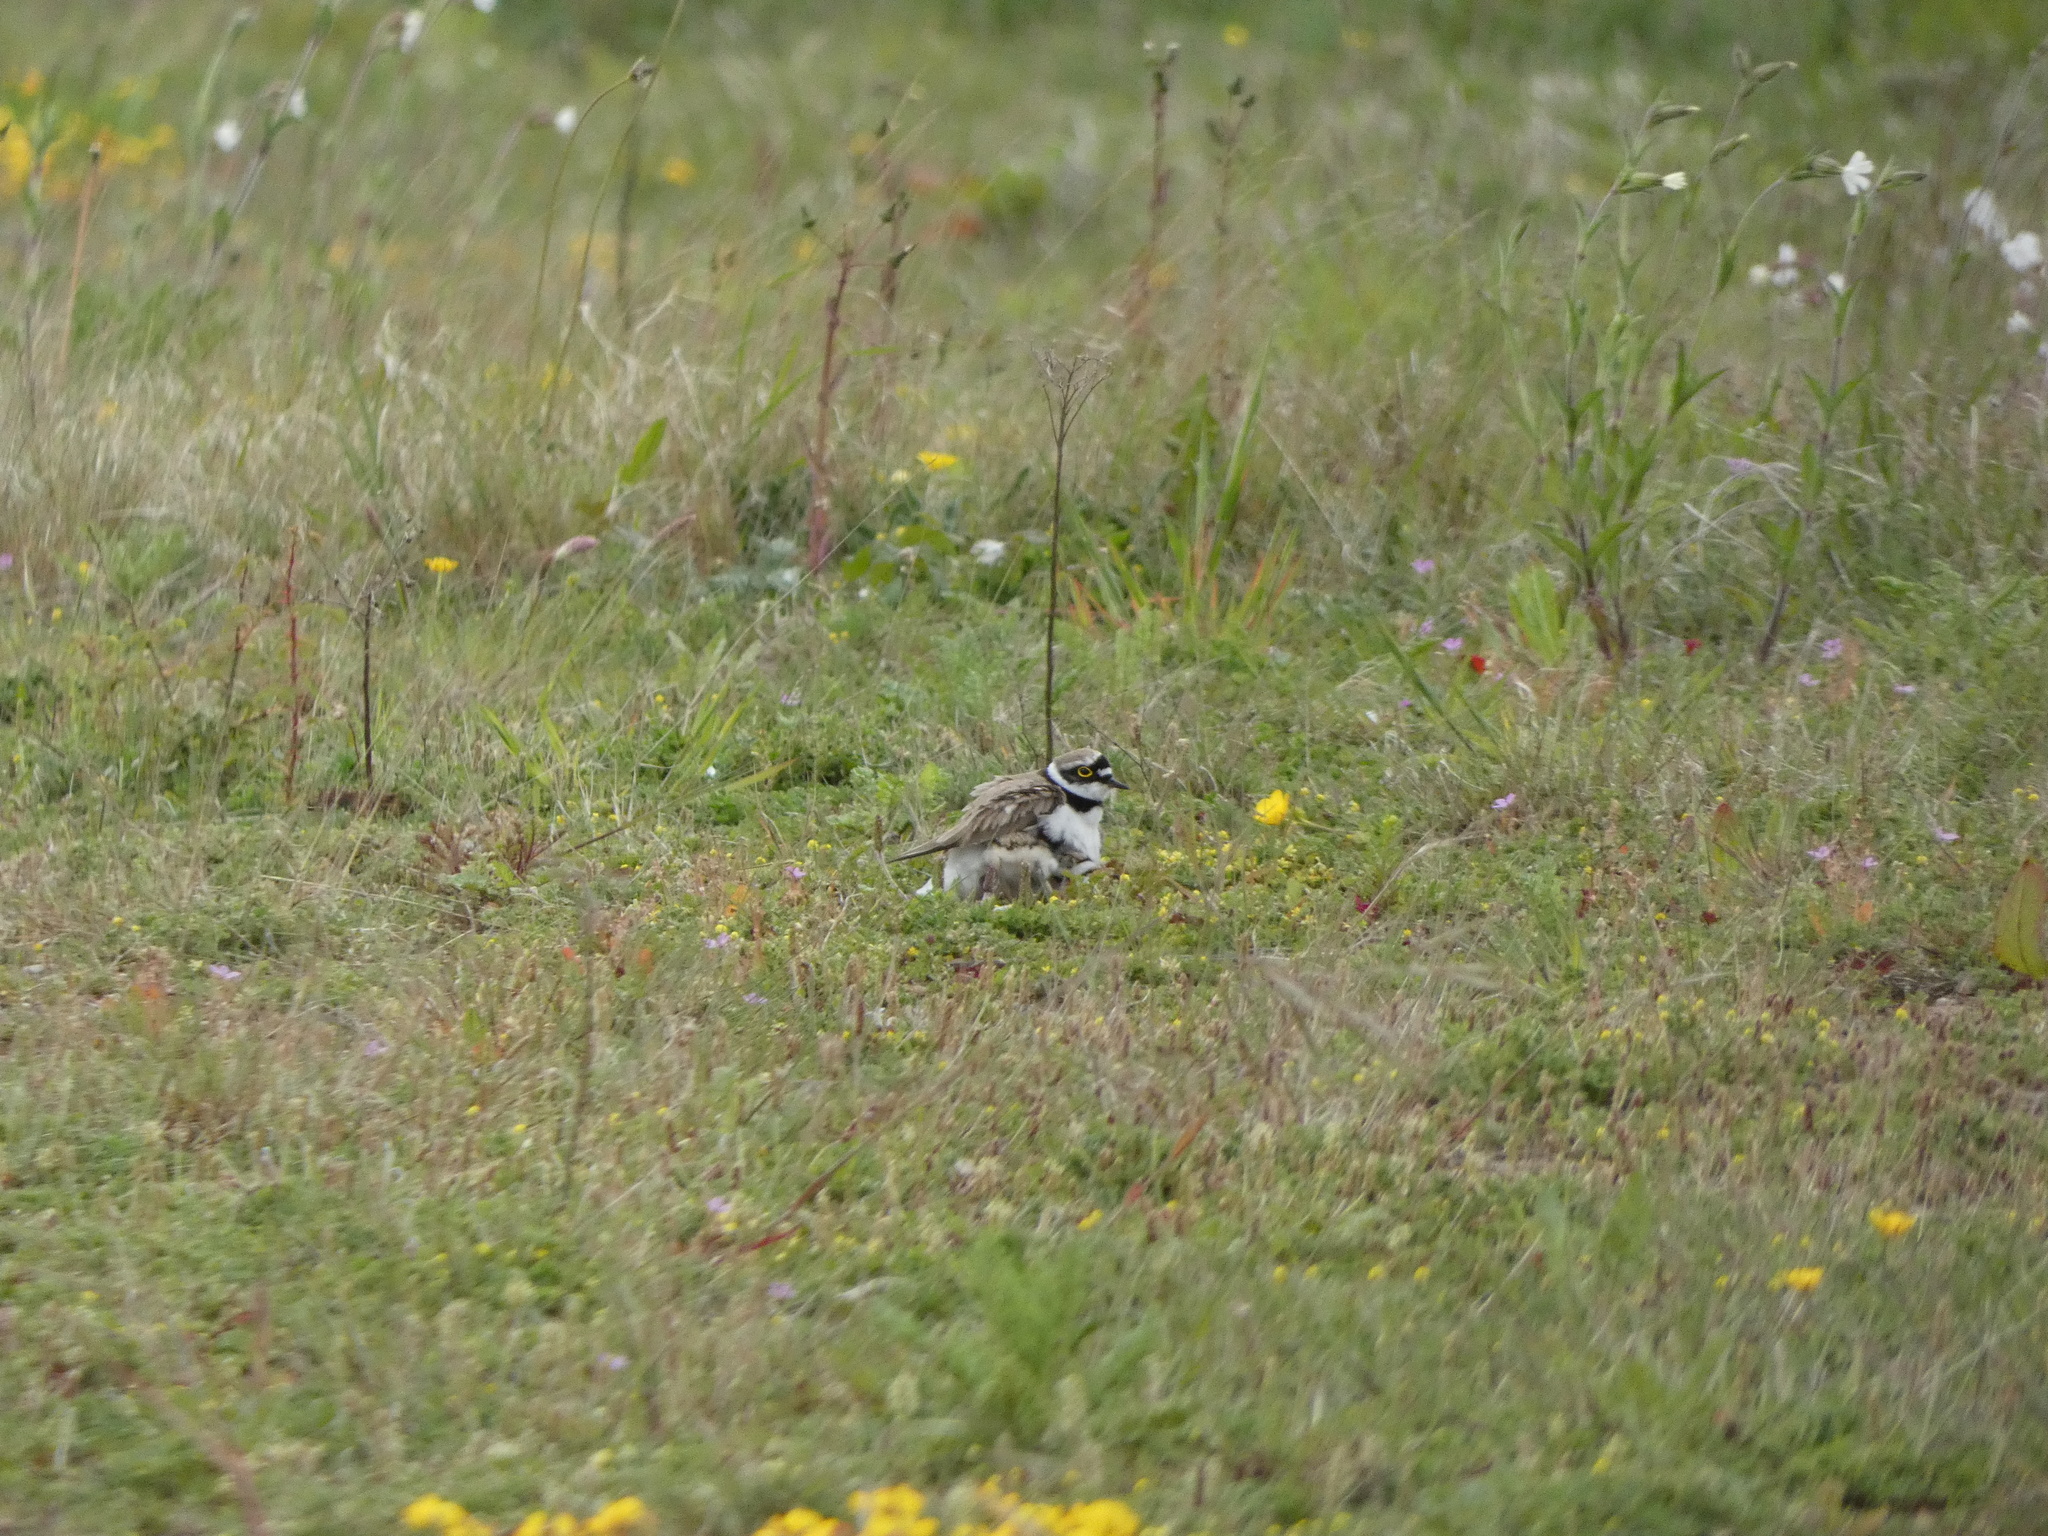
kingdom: Animalia
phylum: Chordata
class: Aves
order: Charadriiformes
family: Charadriidae
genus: Charadrius
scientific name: Charadrius dubius
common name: Little ringed plover
